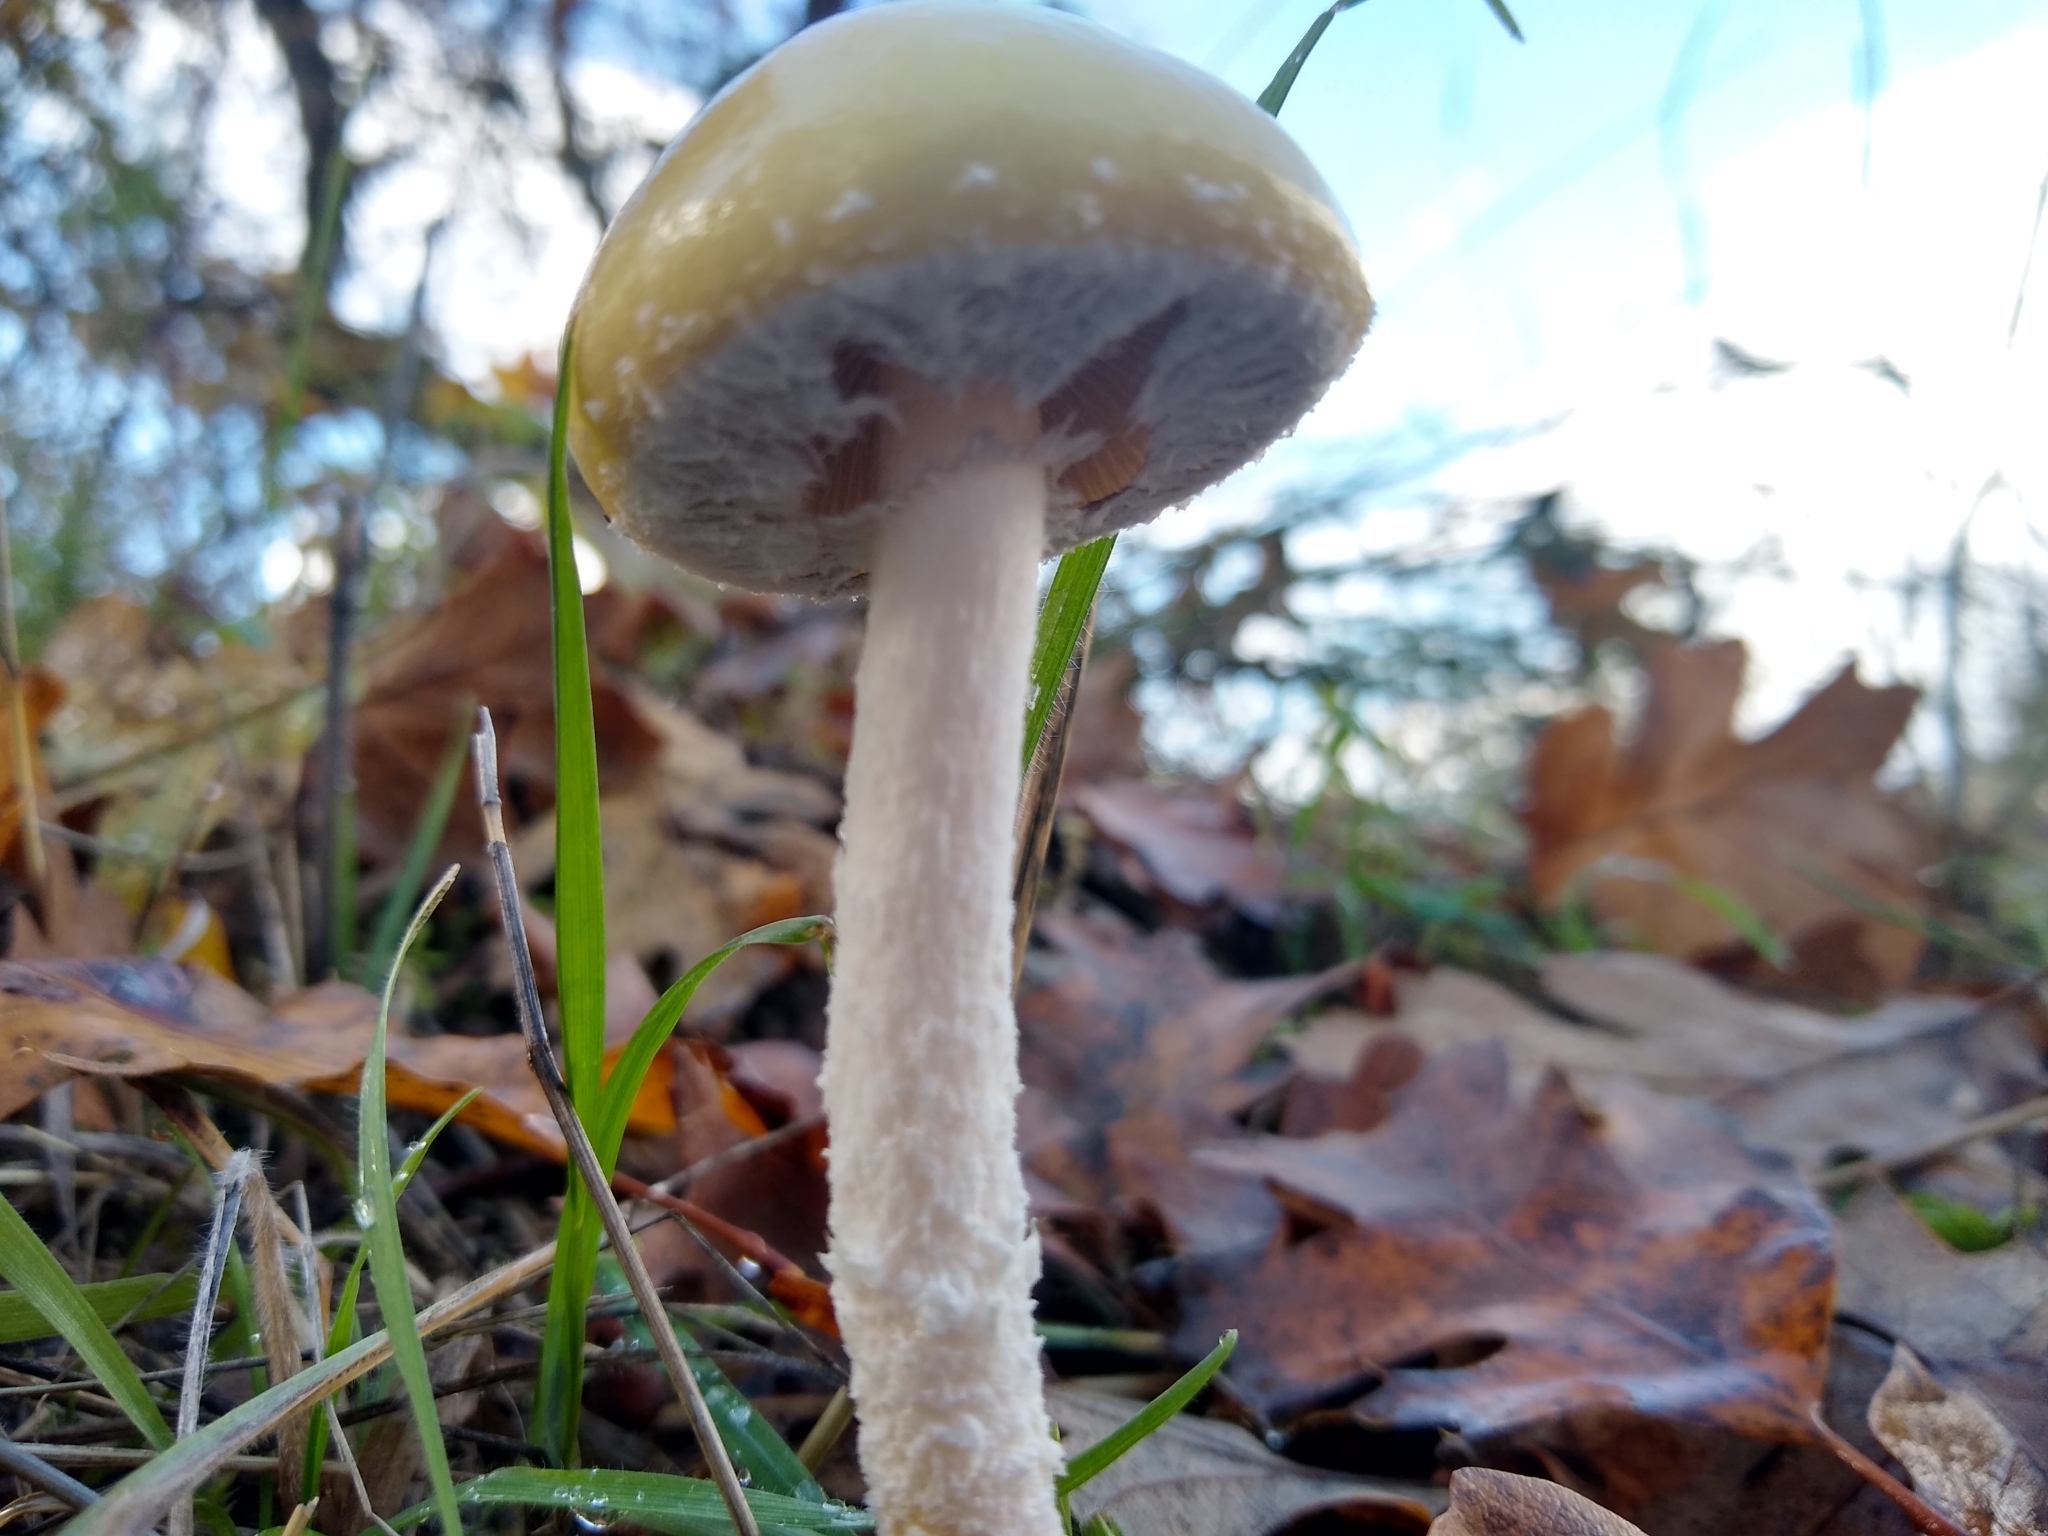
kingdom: Fungi
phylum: Basidiomycota
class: Agaricomycetes
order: Agaricales
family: Strophariaceae
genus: Stropharia
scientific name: Stropharia ambigua
